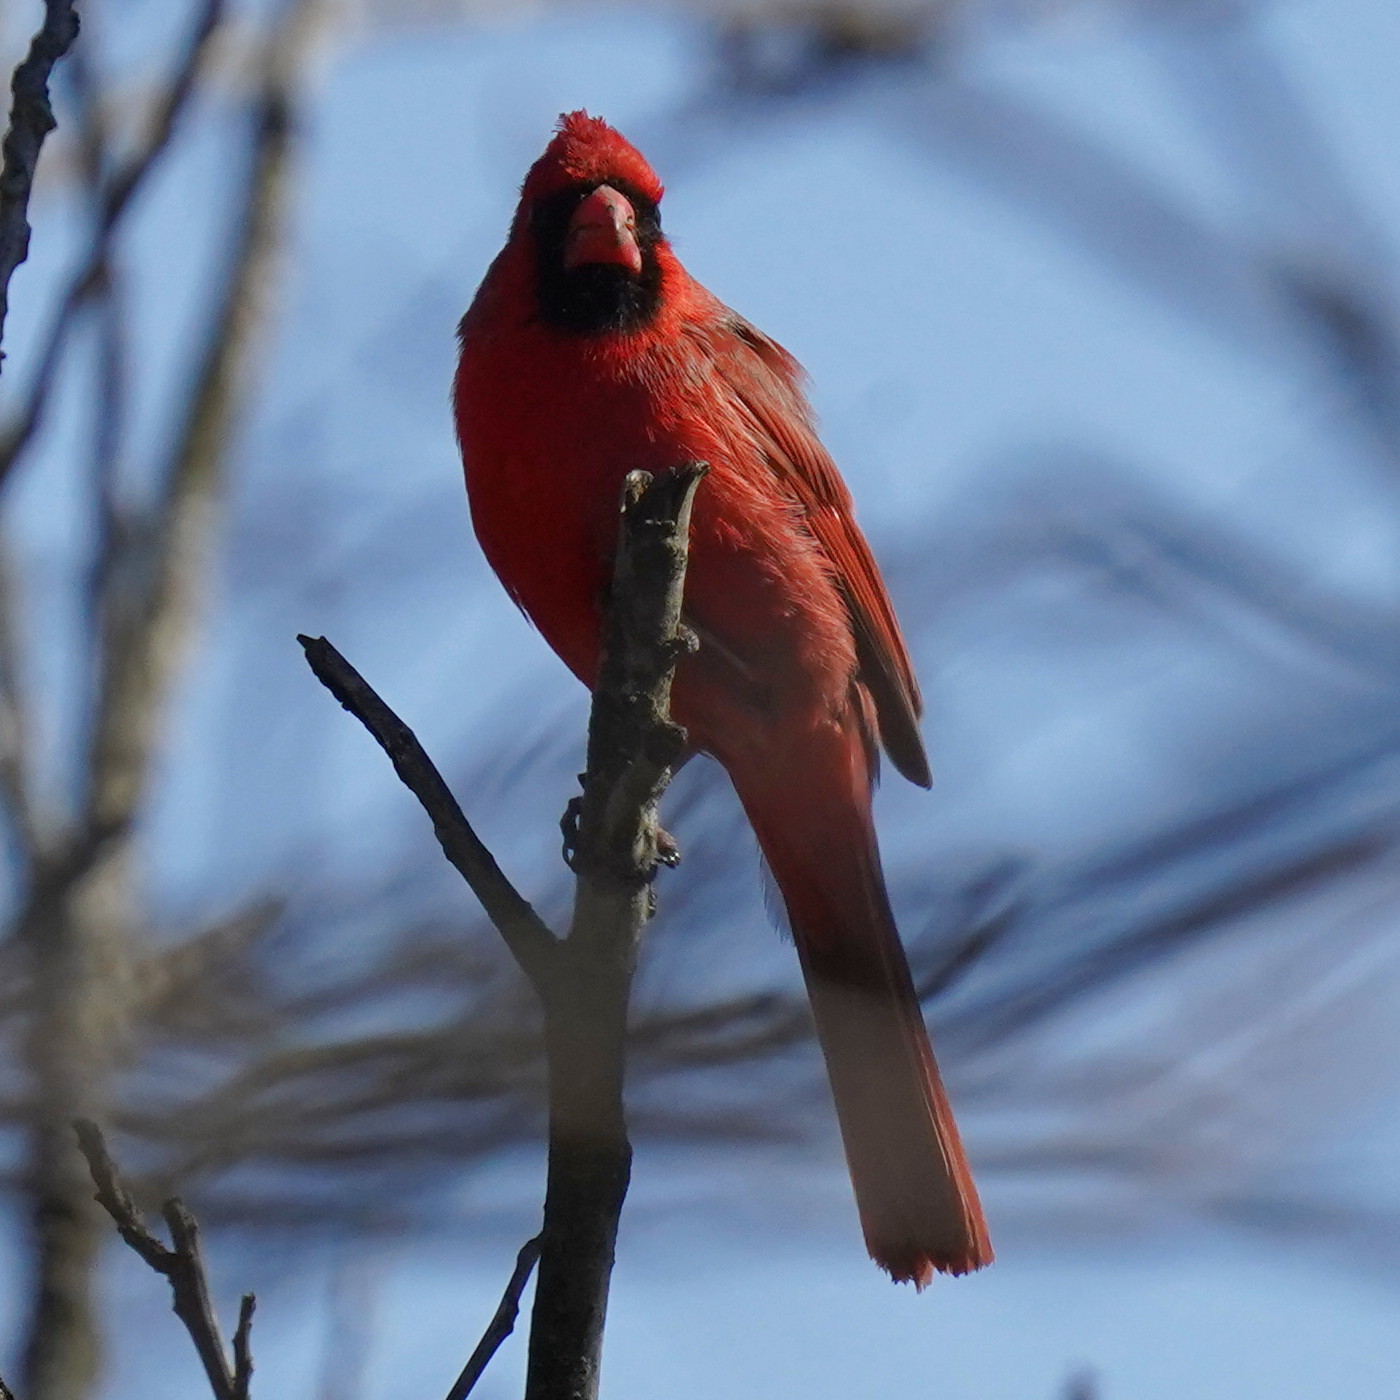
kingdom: Animalia
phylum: Chordata
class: Aves
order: Passeriformes
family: Cardinalidae
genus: Cardinalis
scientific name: Cardinalis cardinalis
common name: Northern cardinal
